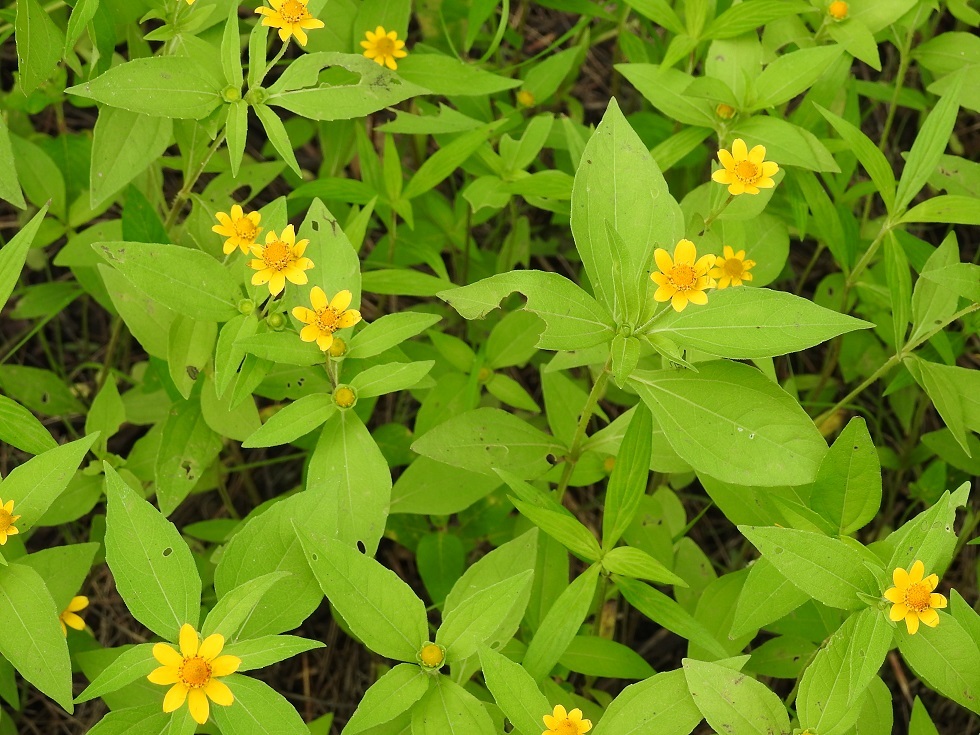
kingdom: Plantae
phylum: Tracheophyta
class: Magnoliopsida
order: Asterales
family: Asteraceae
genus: Melampodium
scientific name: Melampodium divaricatum
